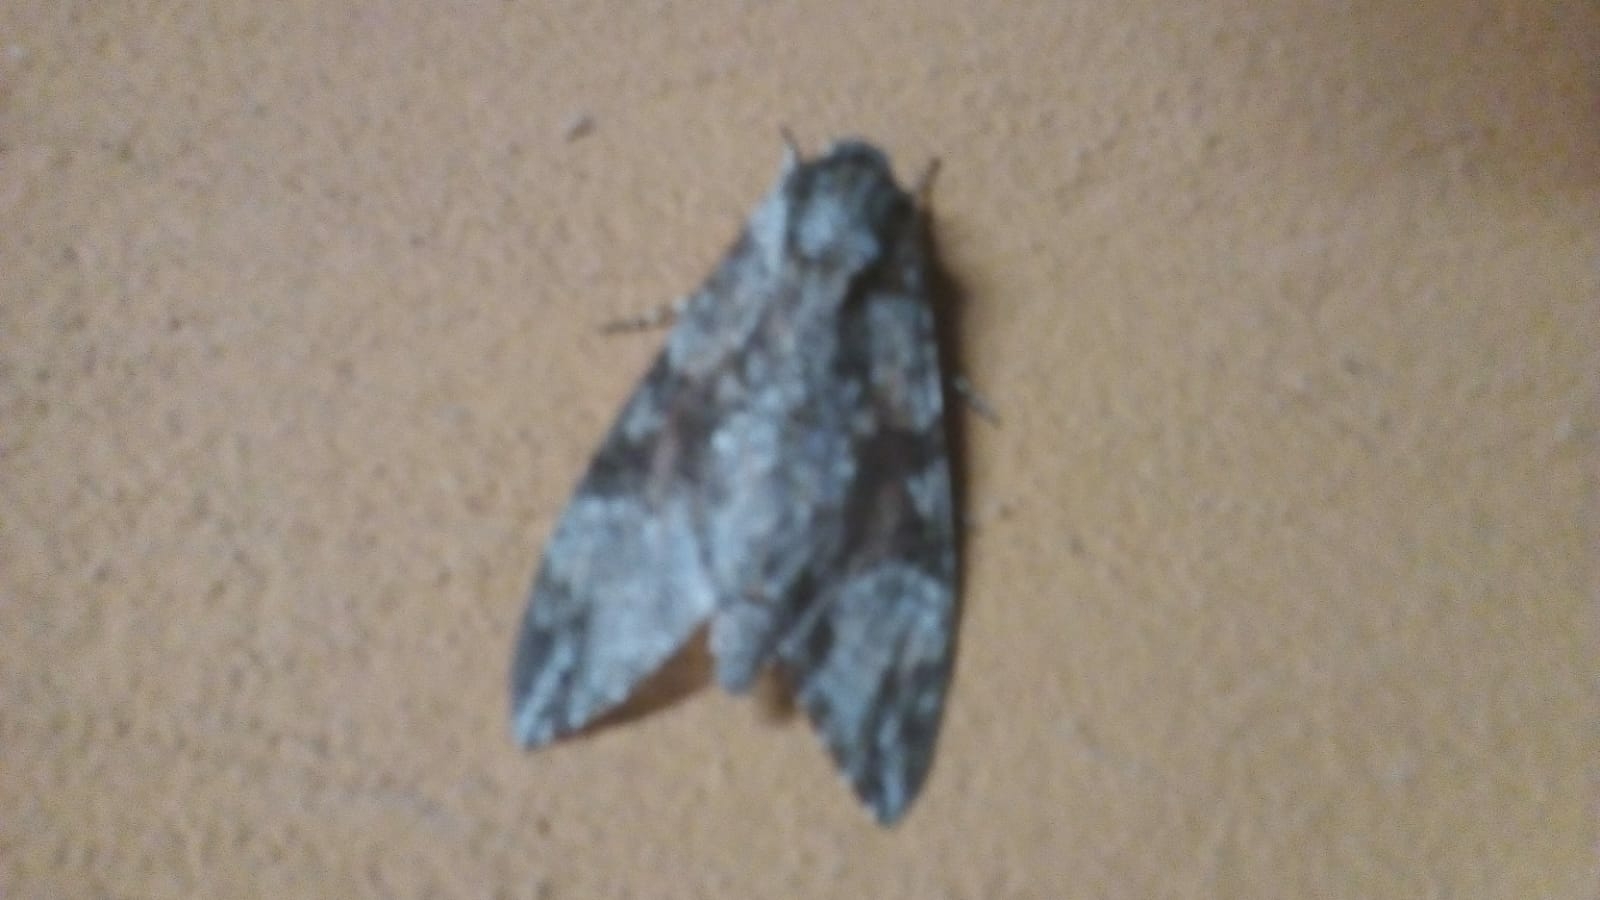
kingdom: Animalia
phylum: Arthropoda
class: Insecta
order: Lepidoptera
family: Sphingidae
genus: Agrius
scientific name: Agrius convolvuli
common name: Convolvulus hawkmoth
